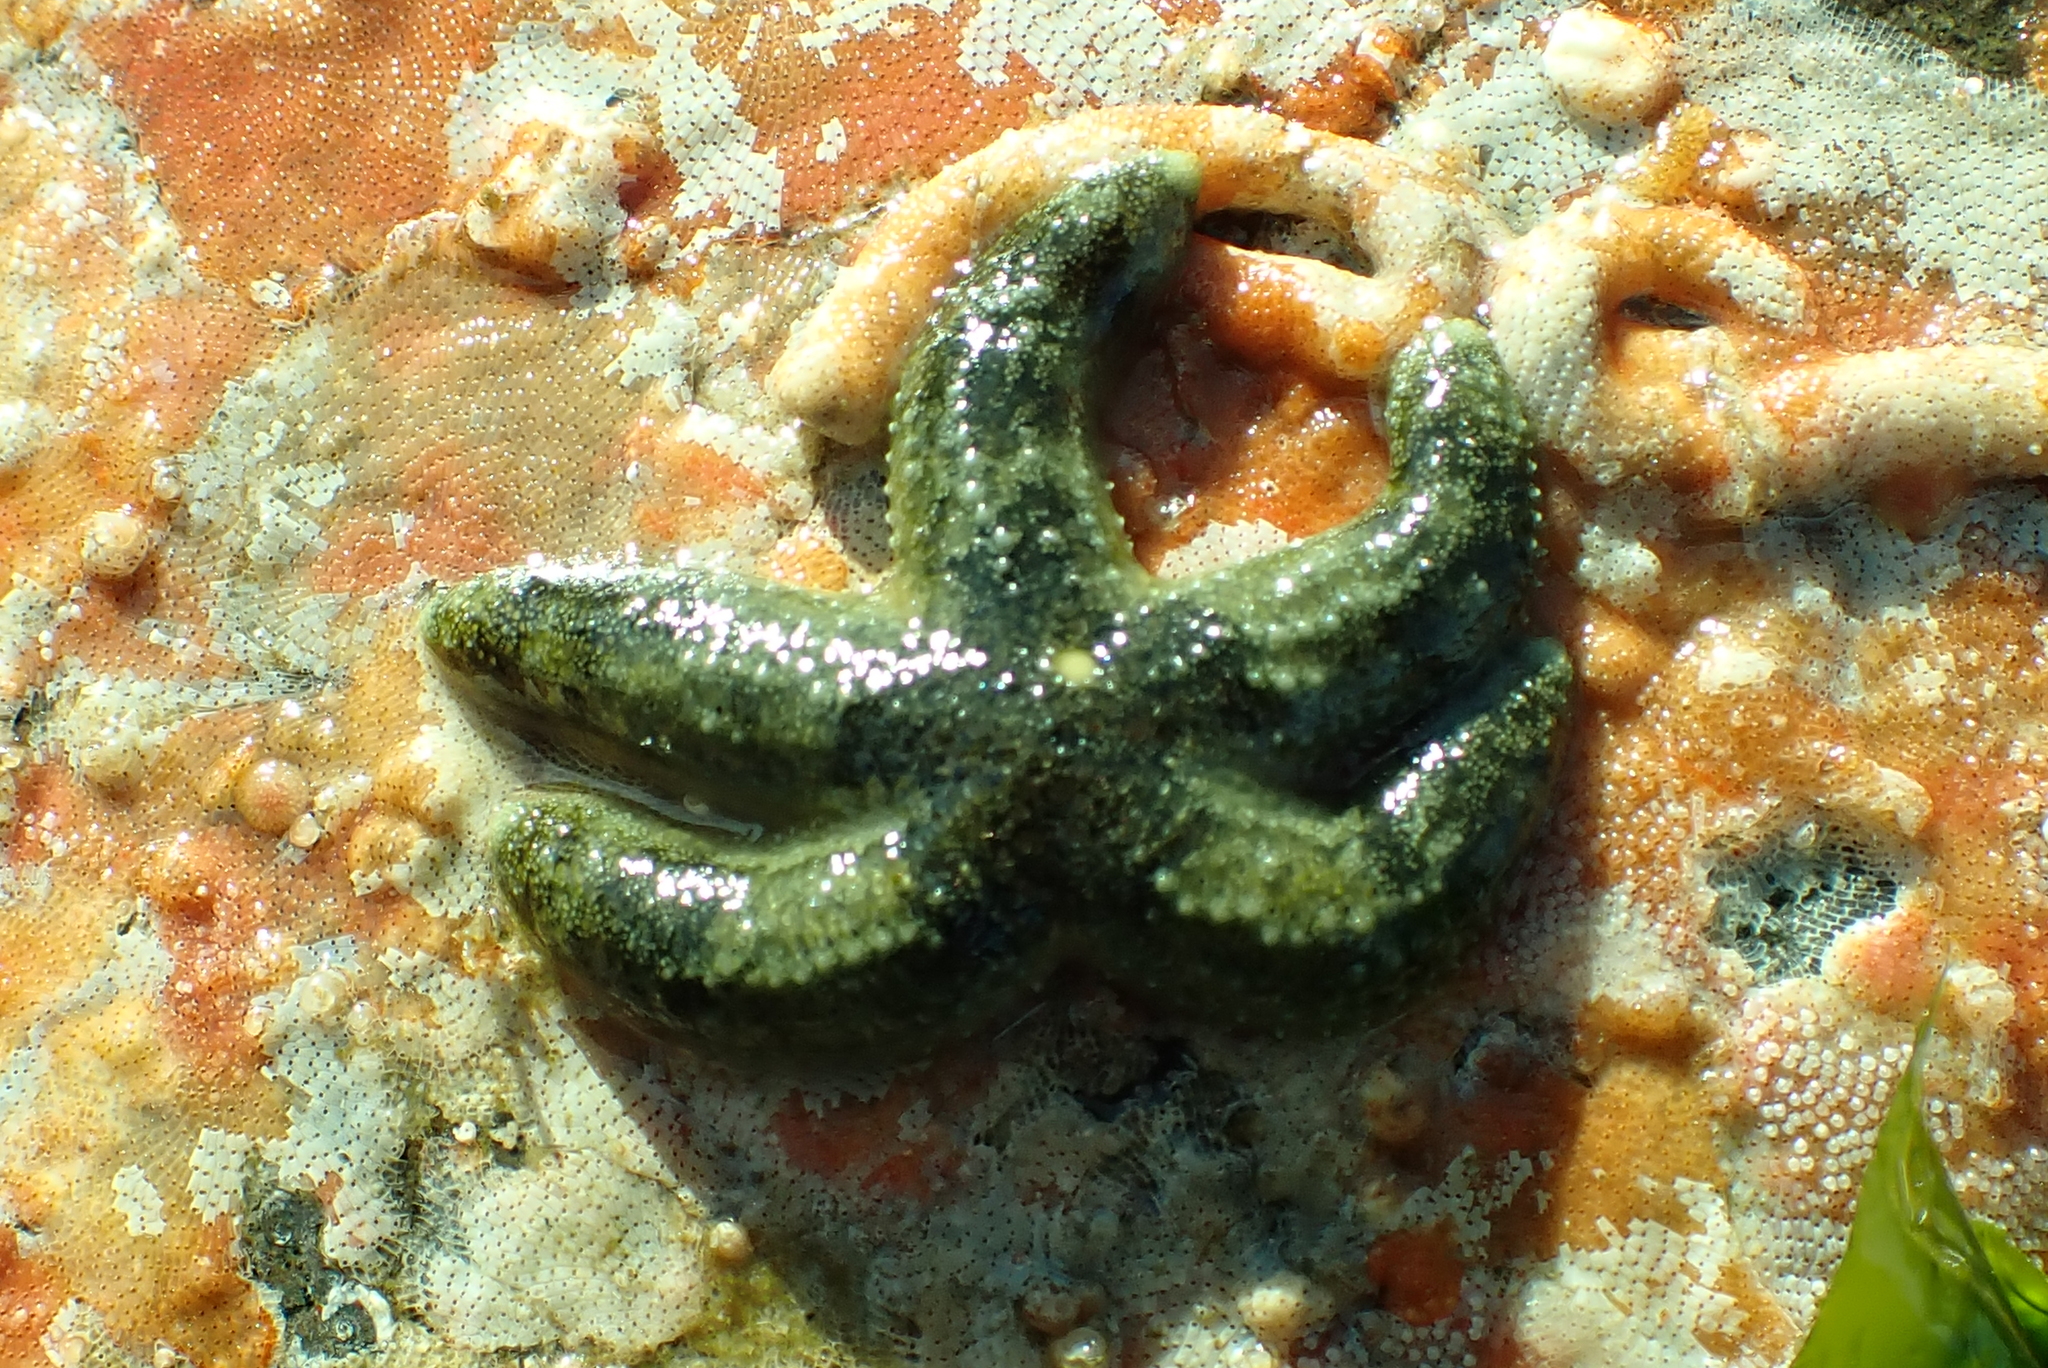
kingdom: Animalia
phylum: Echinodermata
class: Asteroidea
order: Forcipulatida
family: Asteriidae
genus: Evasterias
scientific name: Evasterias troschelii
